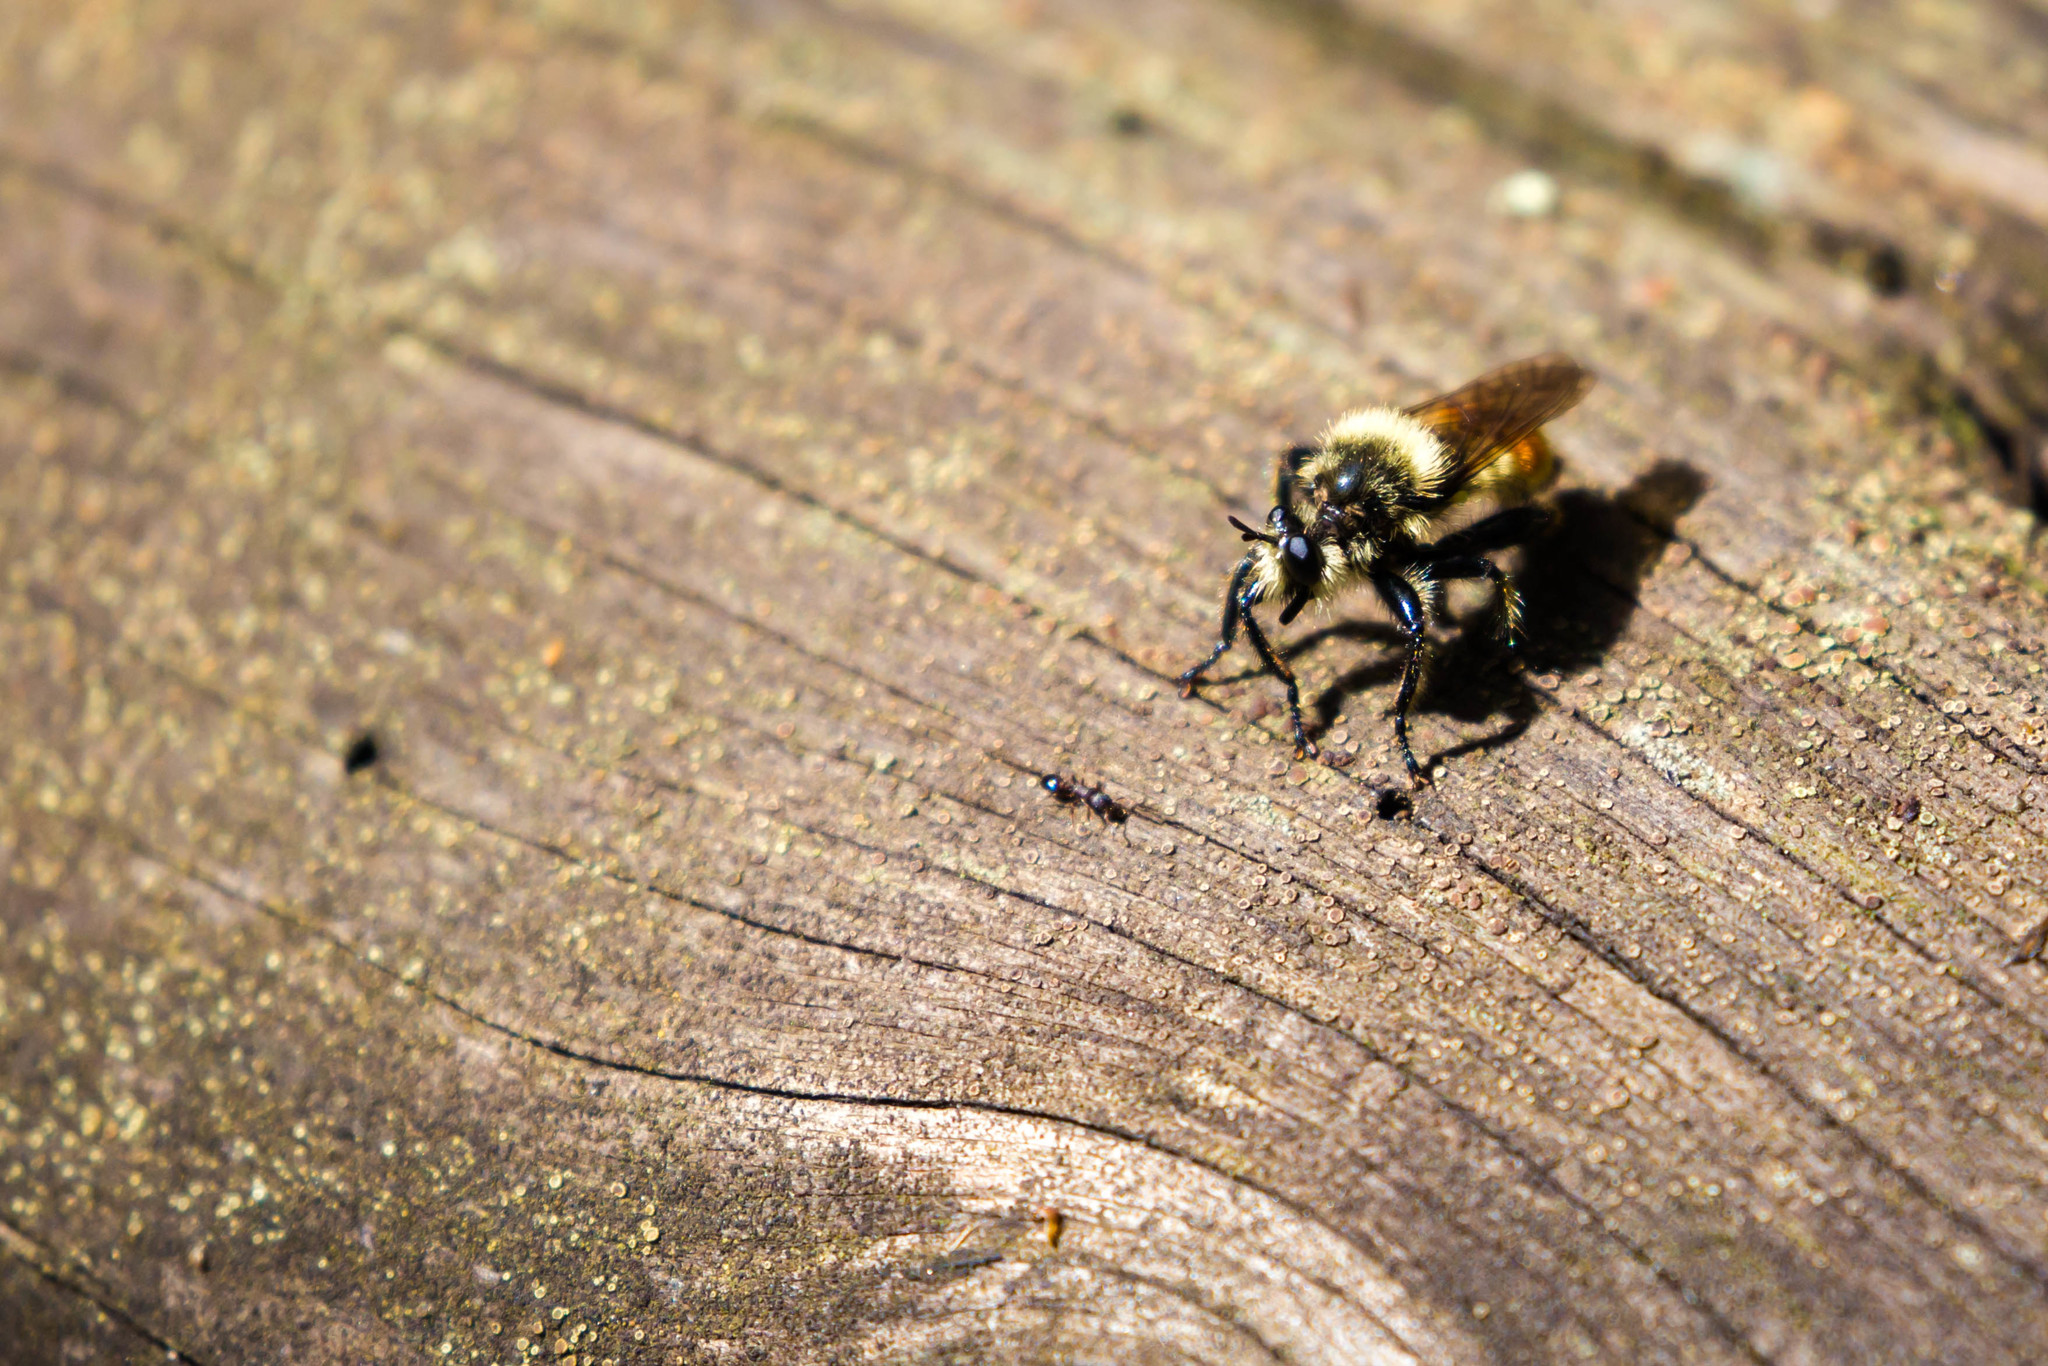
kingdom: Animalia
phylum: Arthropoda
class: Insecta
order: Diptera
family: Asilidae
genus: Laphria
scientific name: Laphria fernaldi
